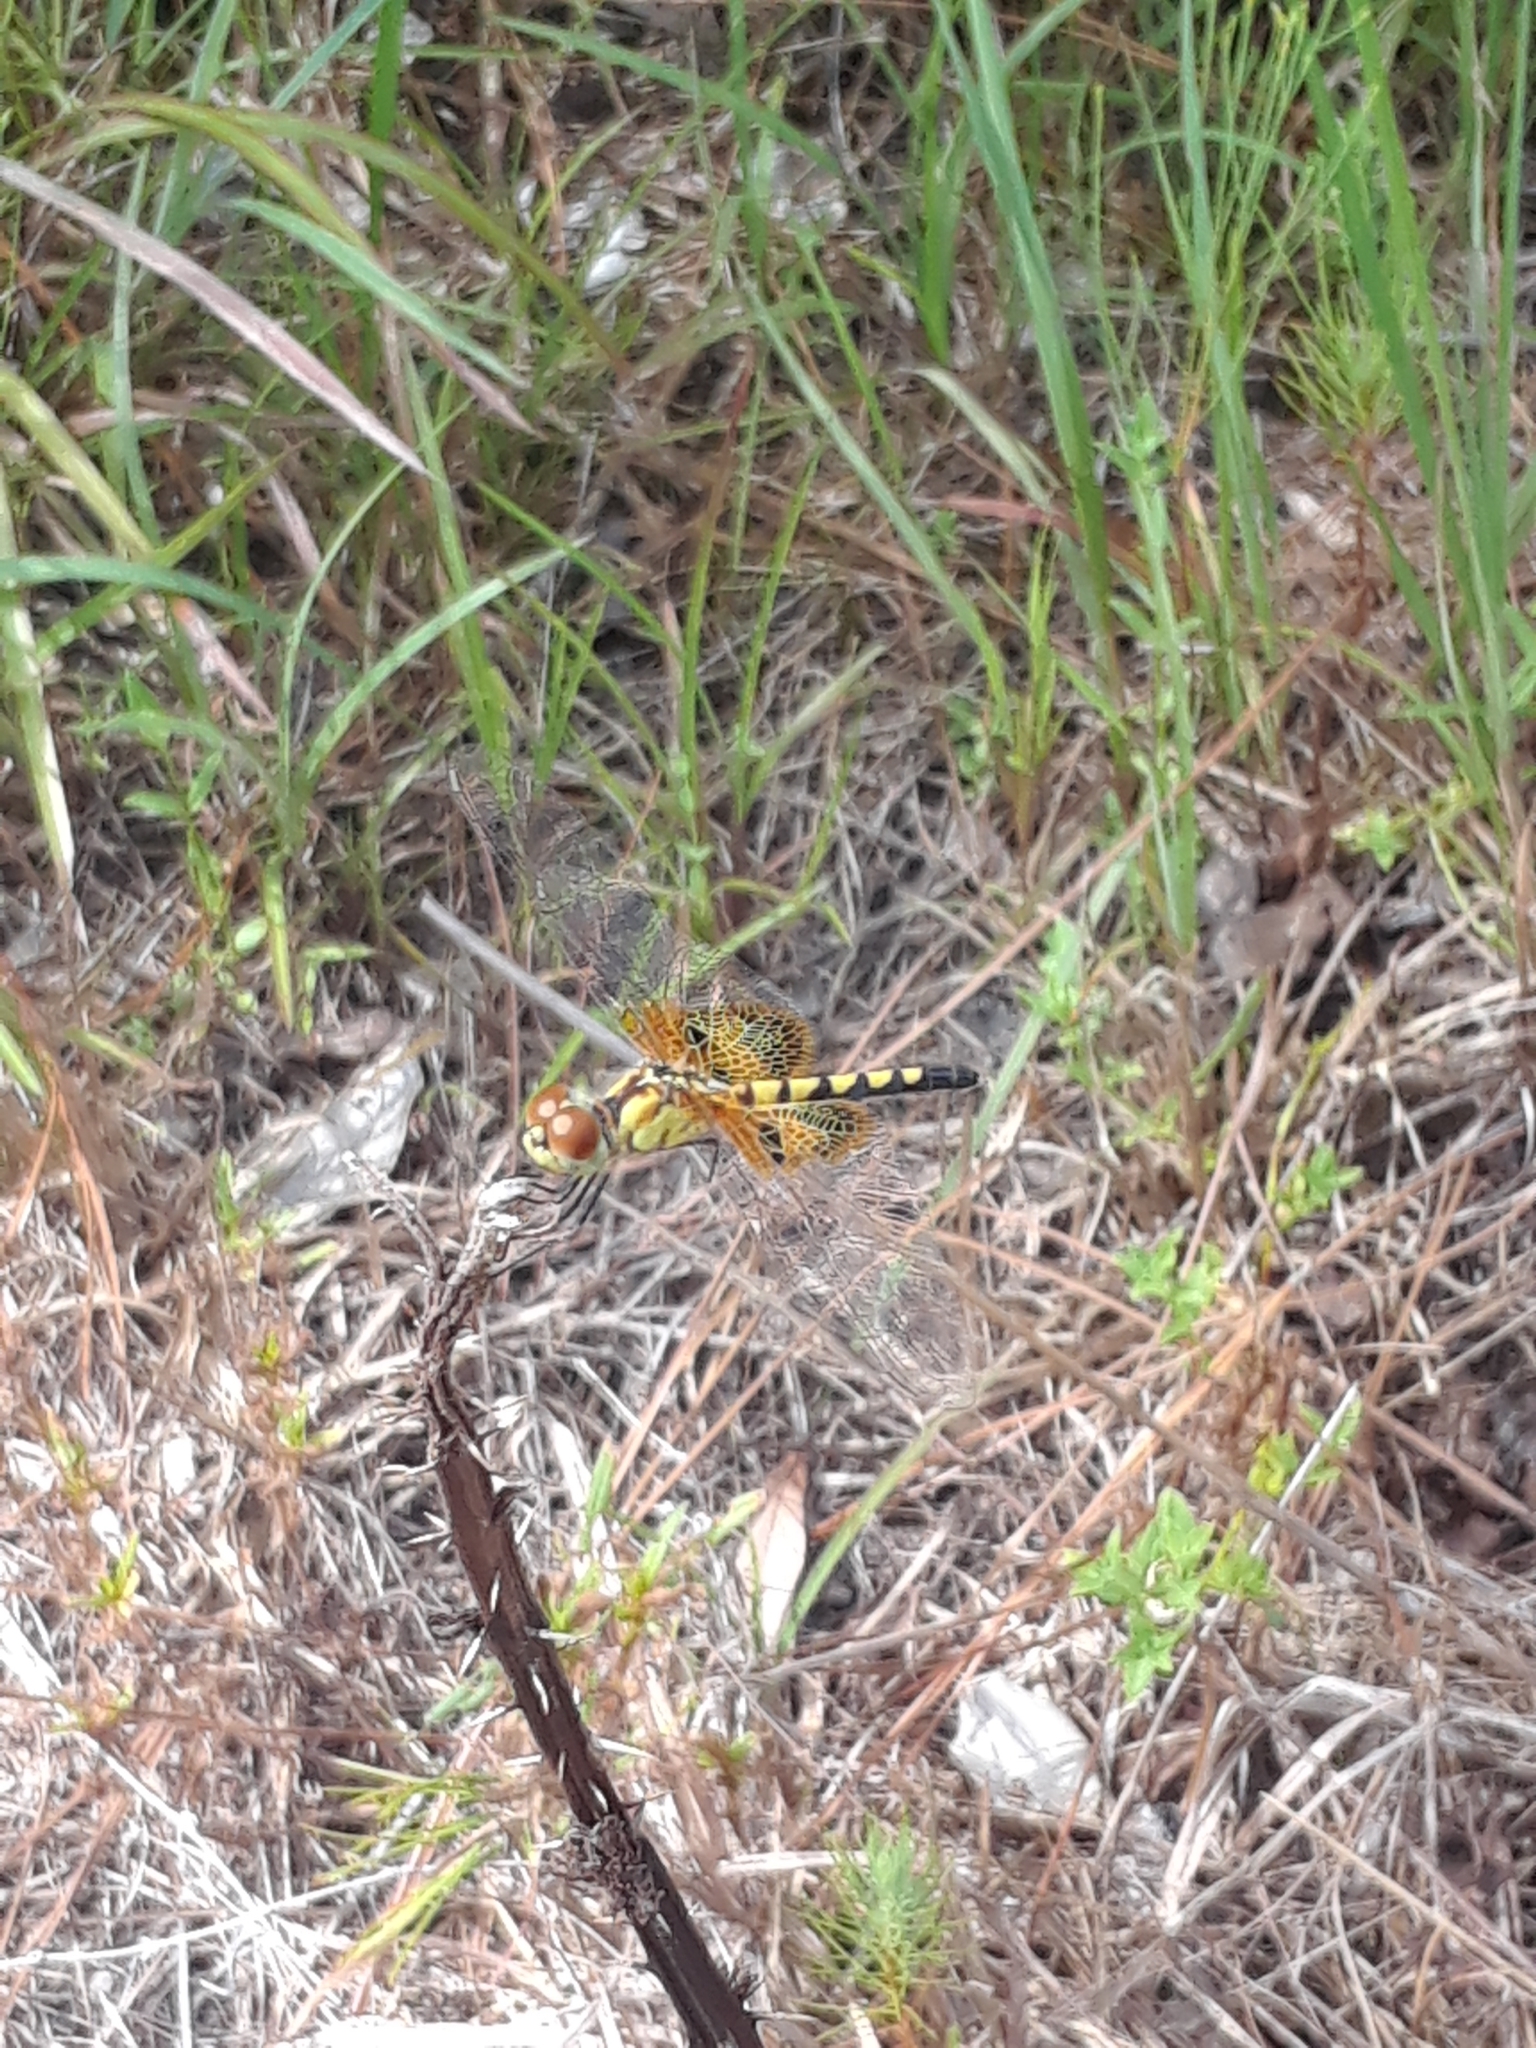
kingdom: Animalia
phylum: Arthropoda
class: Insecta
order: Odonata
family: Libellulidae
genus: Celithemis
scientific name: Celithemis amanda
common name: Amanda's pennant
